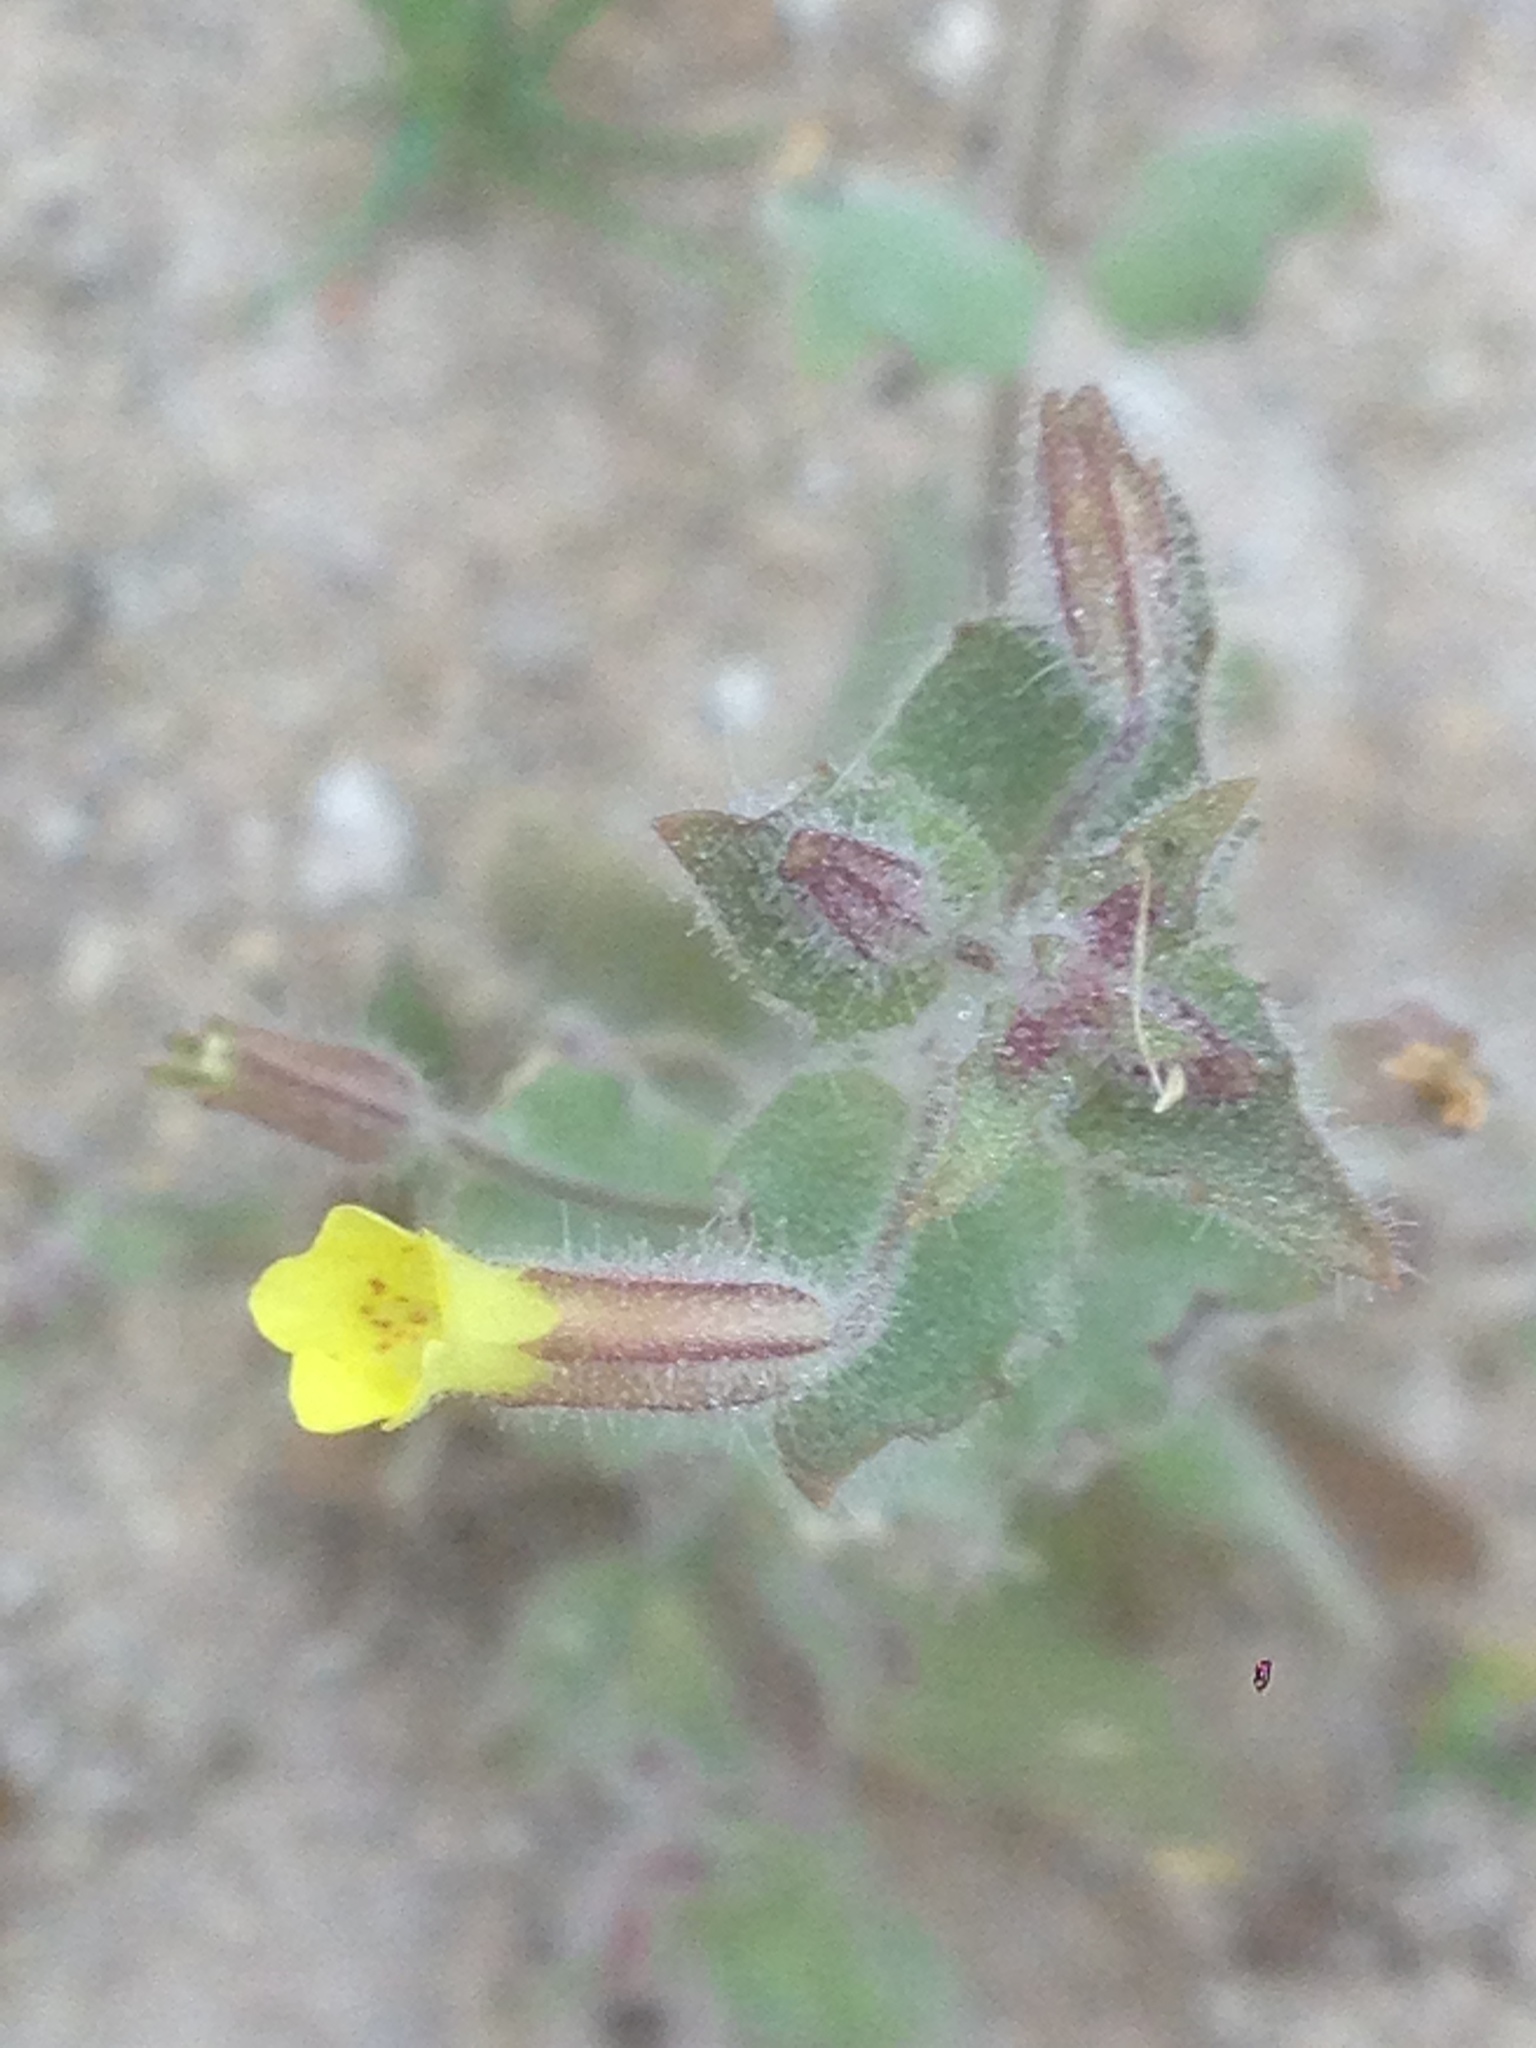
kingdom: Plantae
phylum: Tracheophyta
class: Magnoliopsida
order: Lamiales
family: Phrymaceae
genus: Erythranthe
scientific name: Erythranthe floribunda
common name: Floriferous monkeyflower
